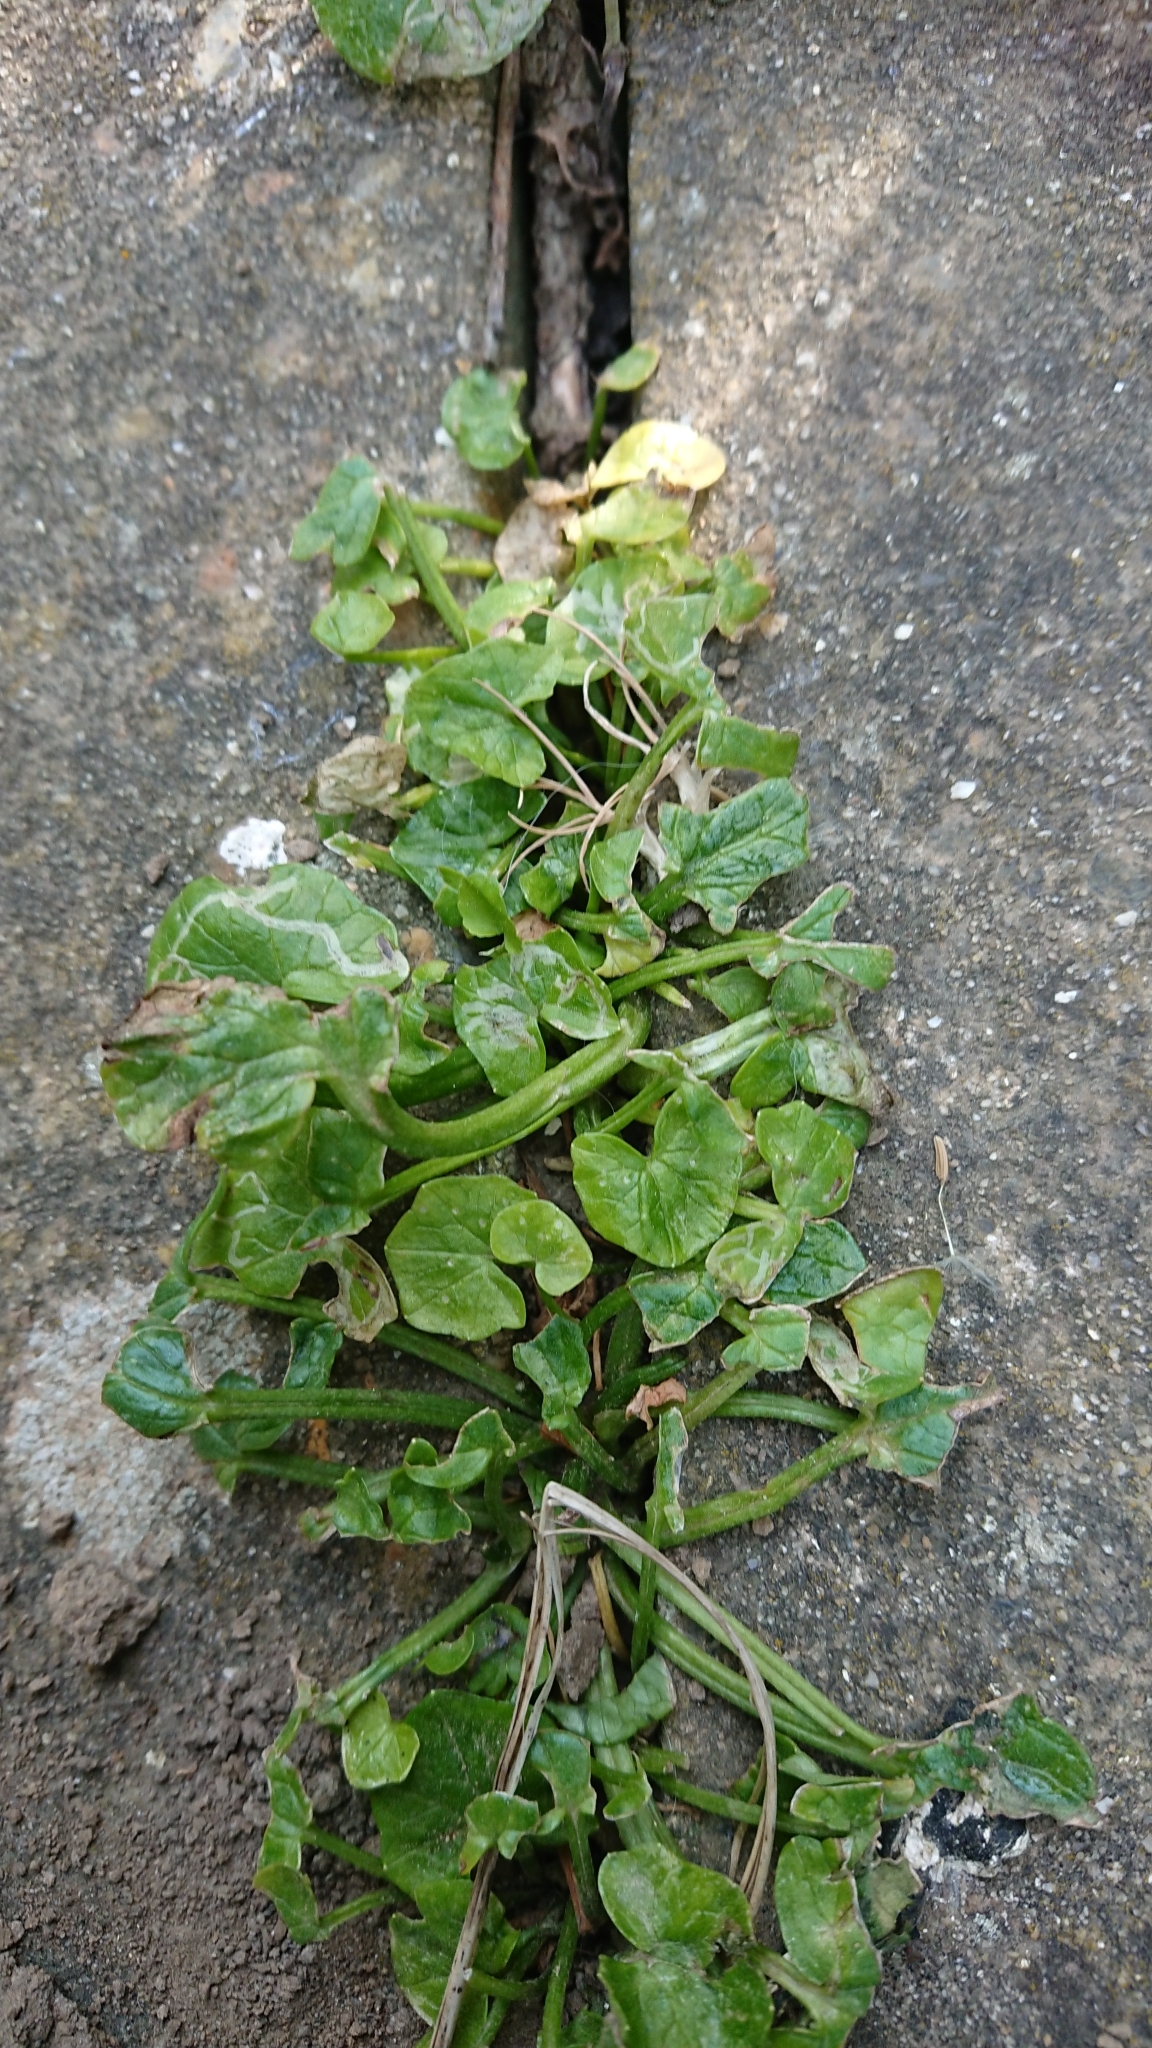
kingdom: Plantae
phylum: Tracheophyta
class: Magnoliopsida
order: Ranunculales
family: Ranunculaceae
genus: Ficaria
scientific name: Ficaria verna
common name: Lesser celandine
